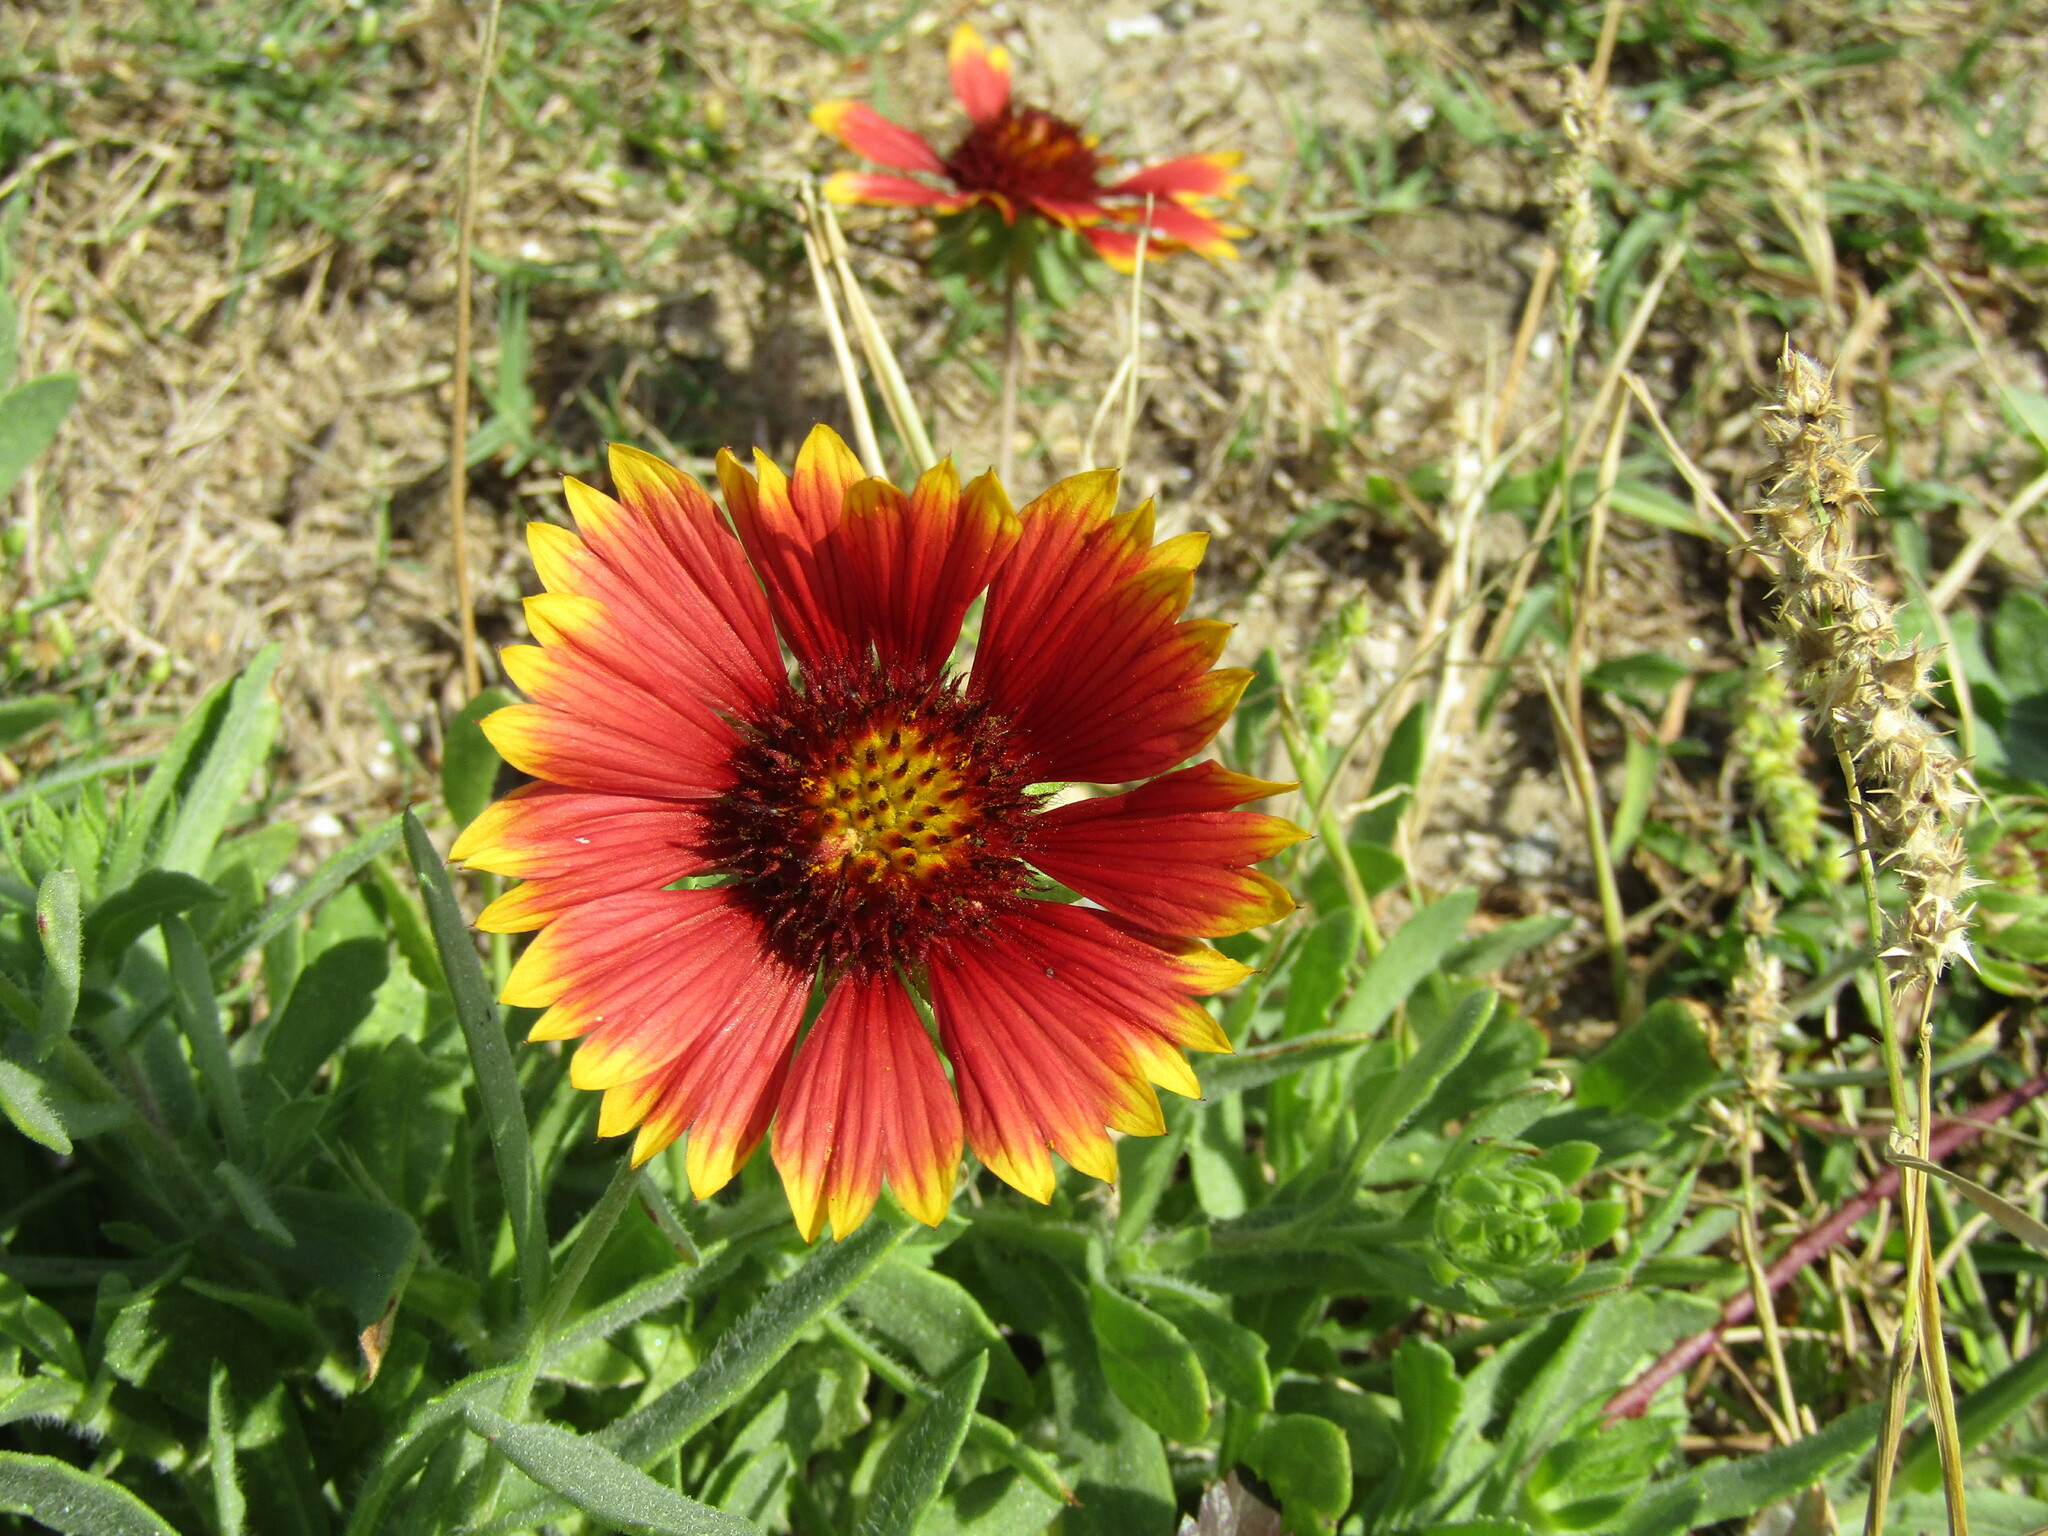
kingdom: Plantae
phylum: Tracheophyta
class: Magnoliopsida
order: Asterales
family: Asteraceae
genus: Gaillardia
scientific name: Gaillardia pulchella
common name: Firewheel
